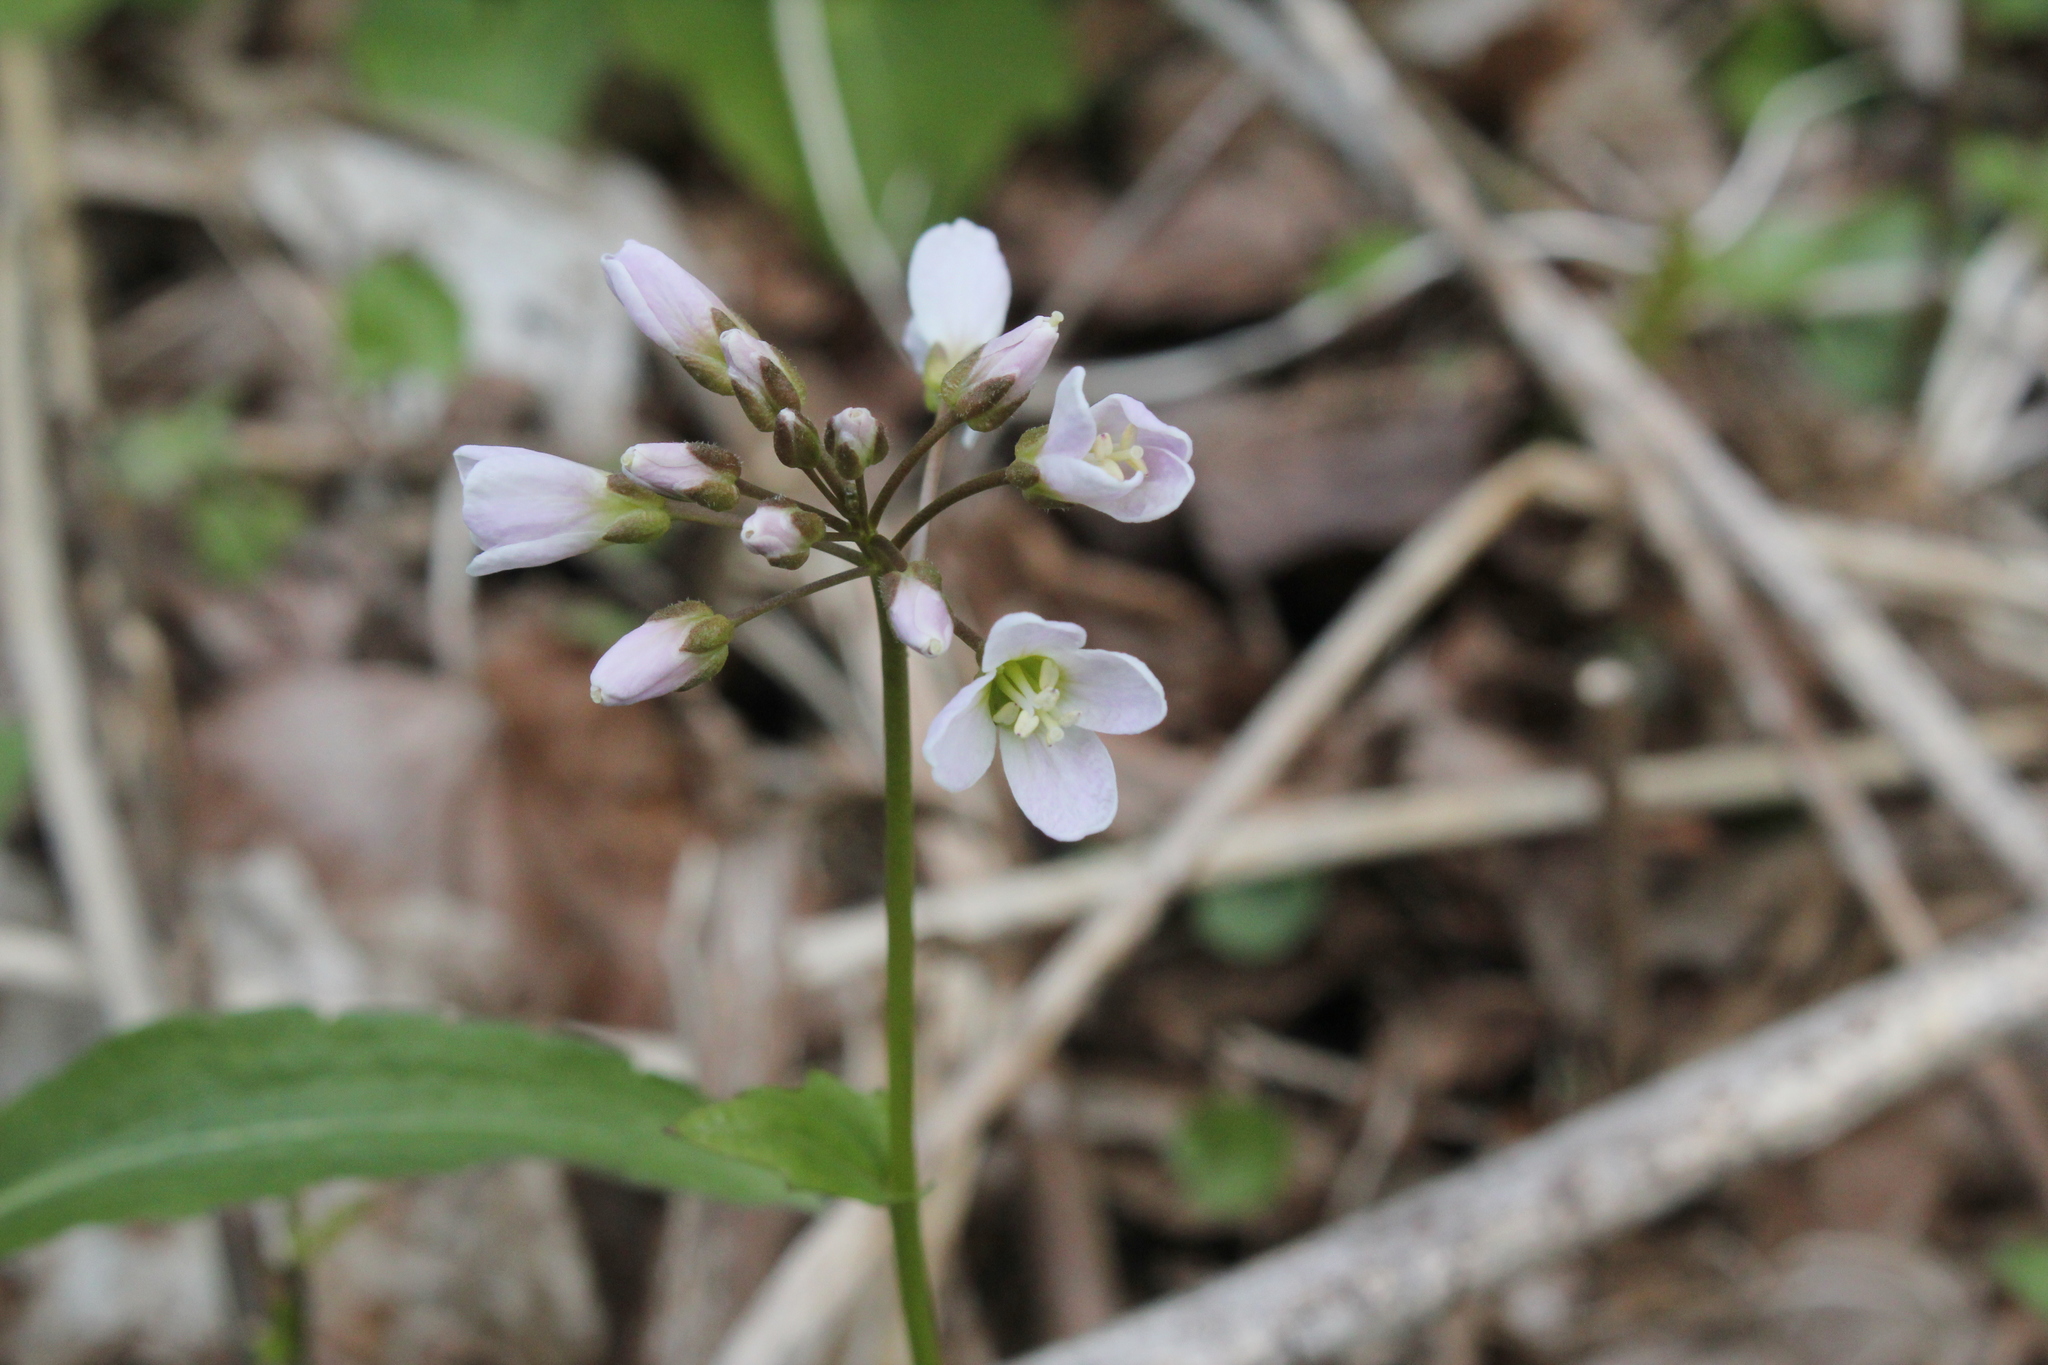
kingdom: Plantae
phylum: Tracheophyta
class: Magnoliopsida
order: Brassicales
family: Brassicaceae
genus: Cardamine
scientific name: Cardamine bulbosa
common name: Spring cress
